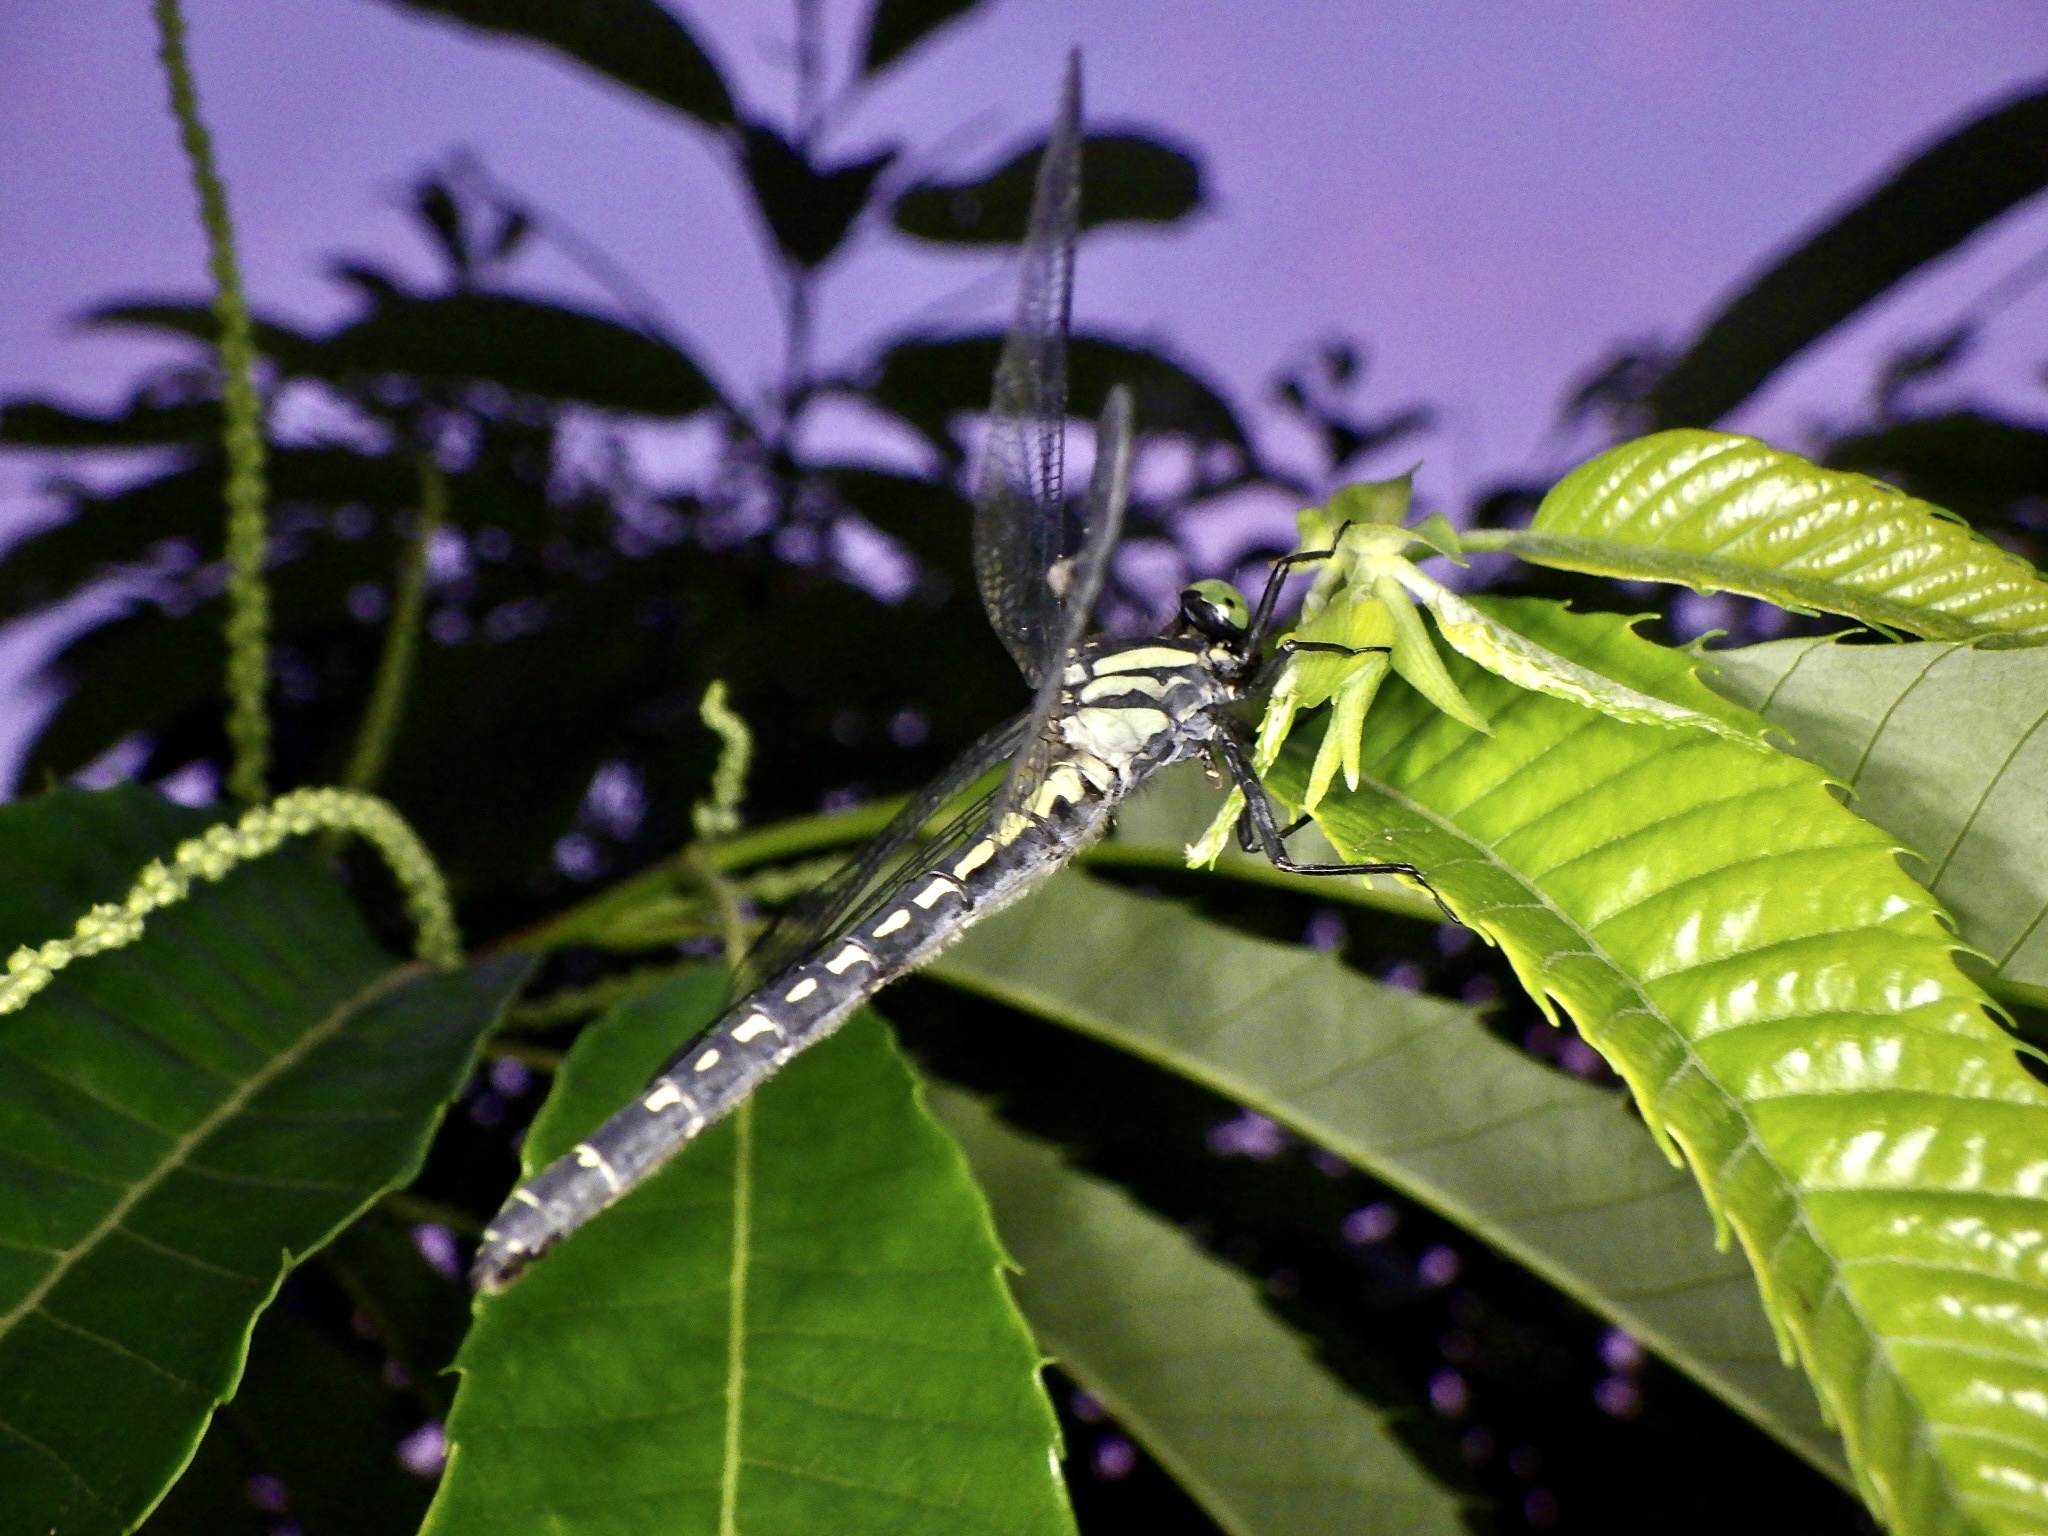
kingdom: Animalia
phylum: Arthropoda
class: Insecta
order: Odonata
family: Gomphidae
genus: Davidius
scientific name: Davidius nanus
